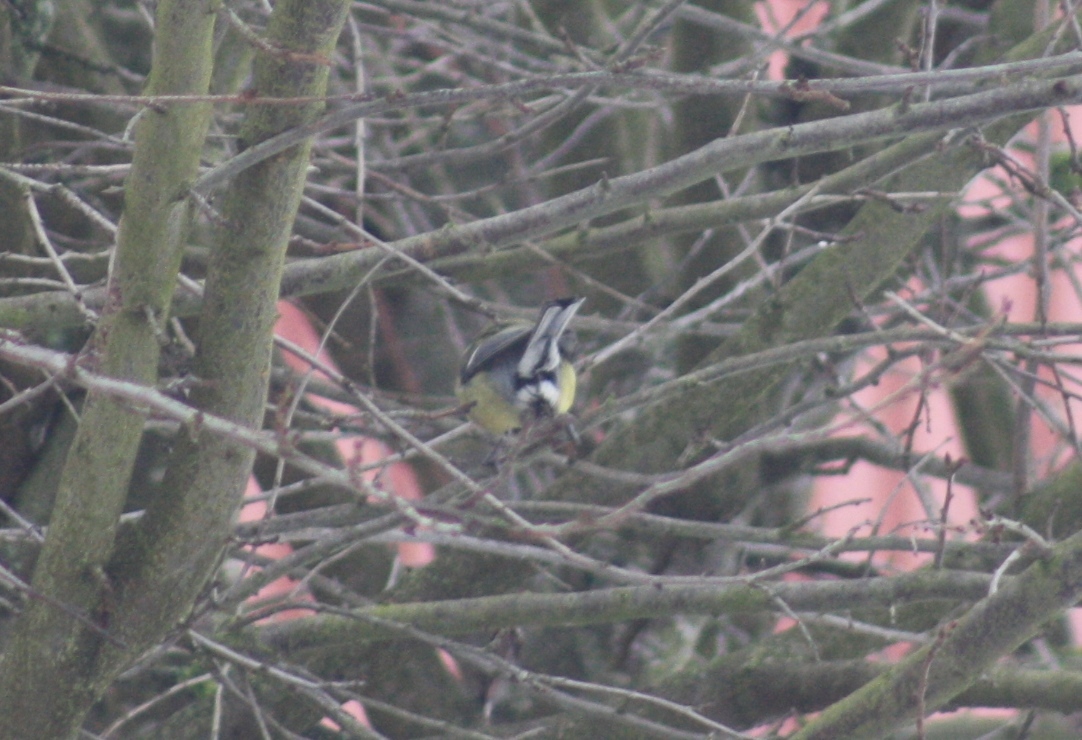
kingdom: Animalia
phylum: Chordata
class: Aves
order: Passeriformes
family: Paridae
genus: Parus
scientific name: Parus major
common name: Great tit
